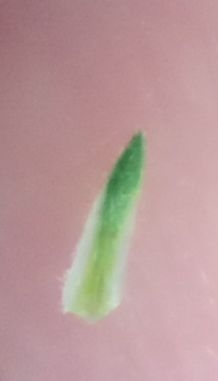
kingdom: Plantae
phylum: Tracheophyta
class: Magnoliopsida
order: Asterales
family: Asteraceae
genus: Symphyotrichum
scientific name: Symphyotrichum salignum
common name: Common michaelmas daisy
